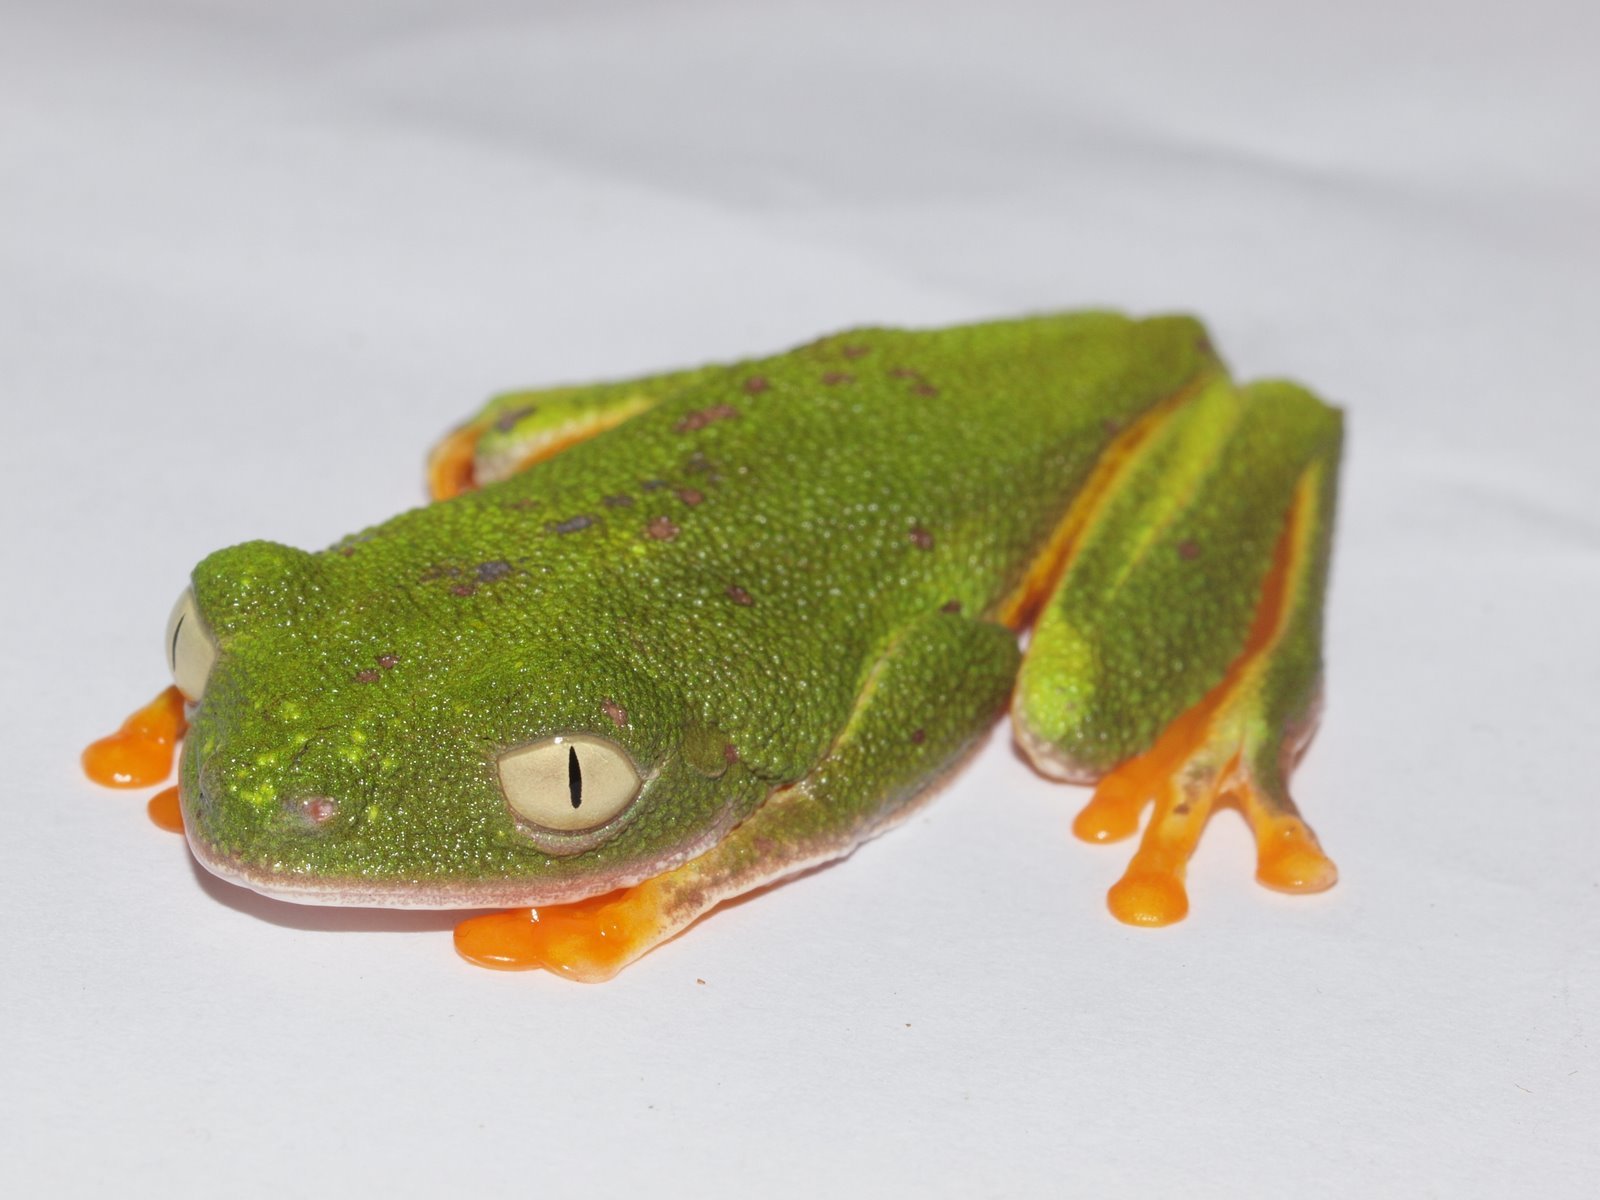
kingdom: Animalia
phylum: Chordata
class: Amphibia
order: Anura
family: Phyllomedusidae
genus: Agalychnis
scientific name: Agalychnis hulli
